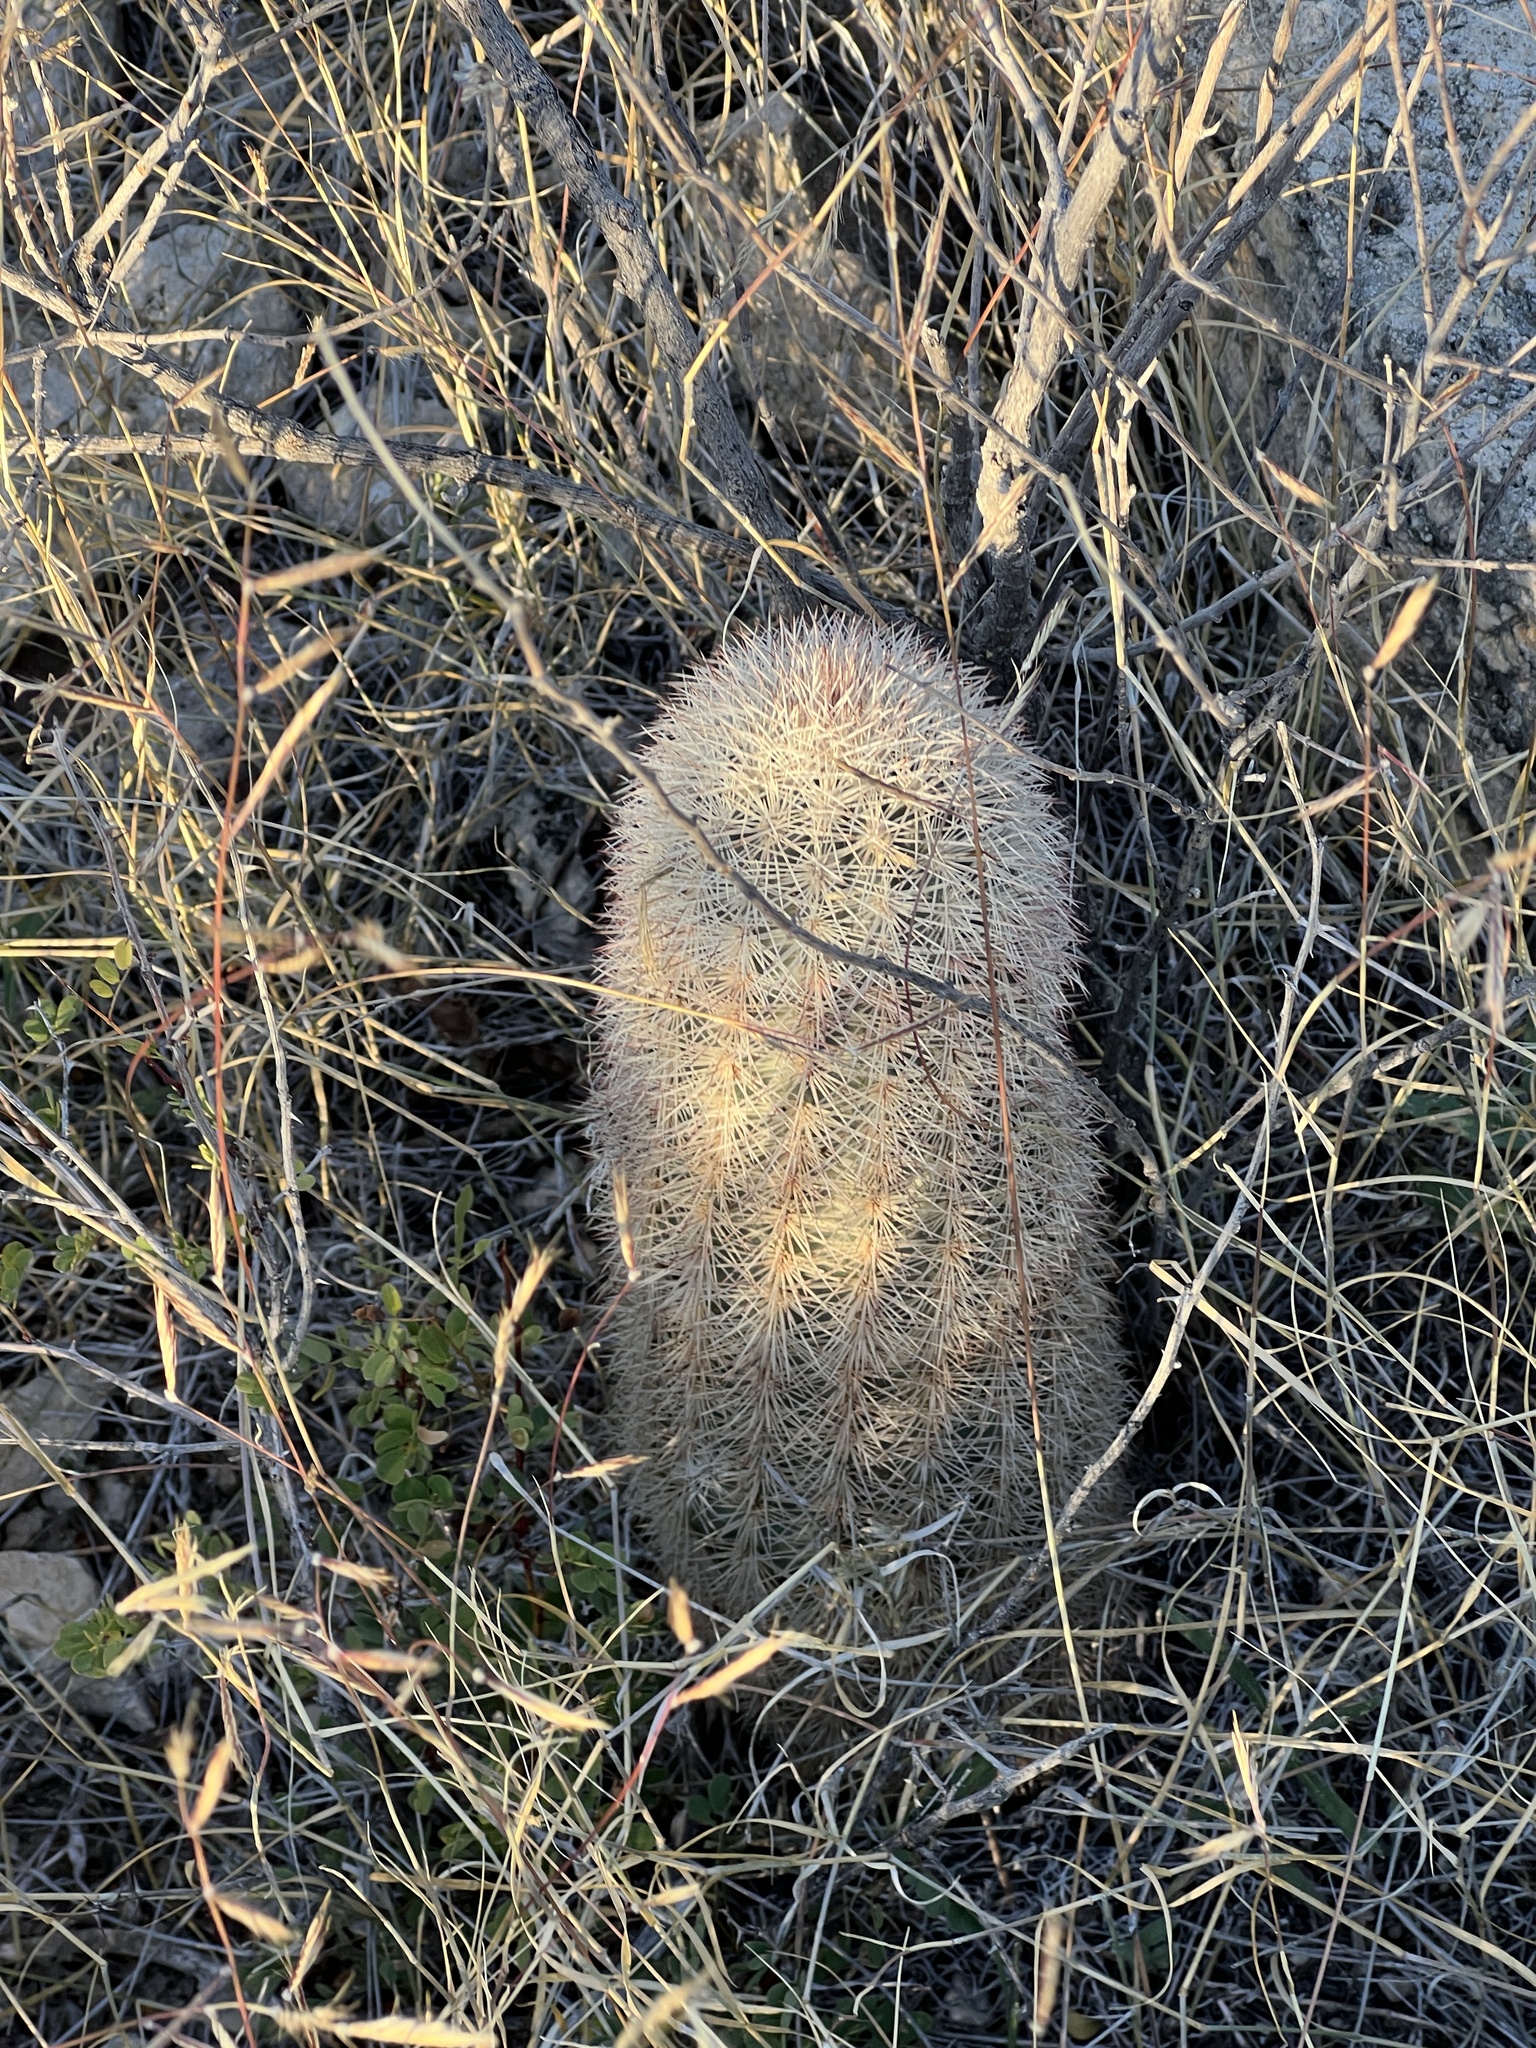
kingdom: Plantae
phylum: Tracheophyta
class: Magnoliopsida
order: Caryophyllales
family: Cactaceae
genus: Echinocereus
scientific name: Echinocereus dasyacanthus
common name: Spiny hedgehog cactus
